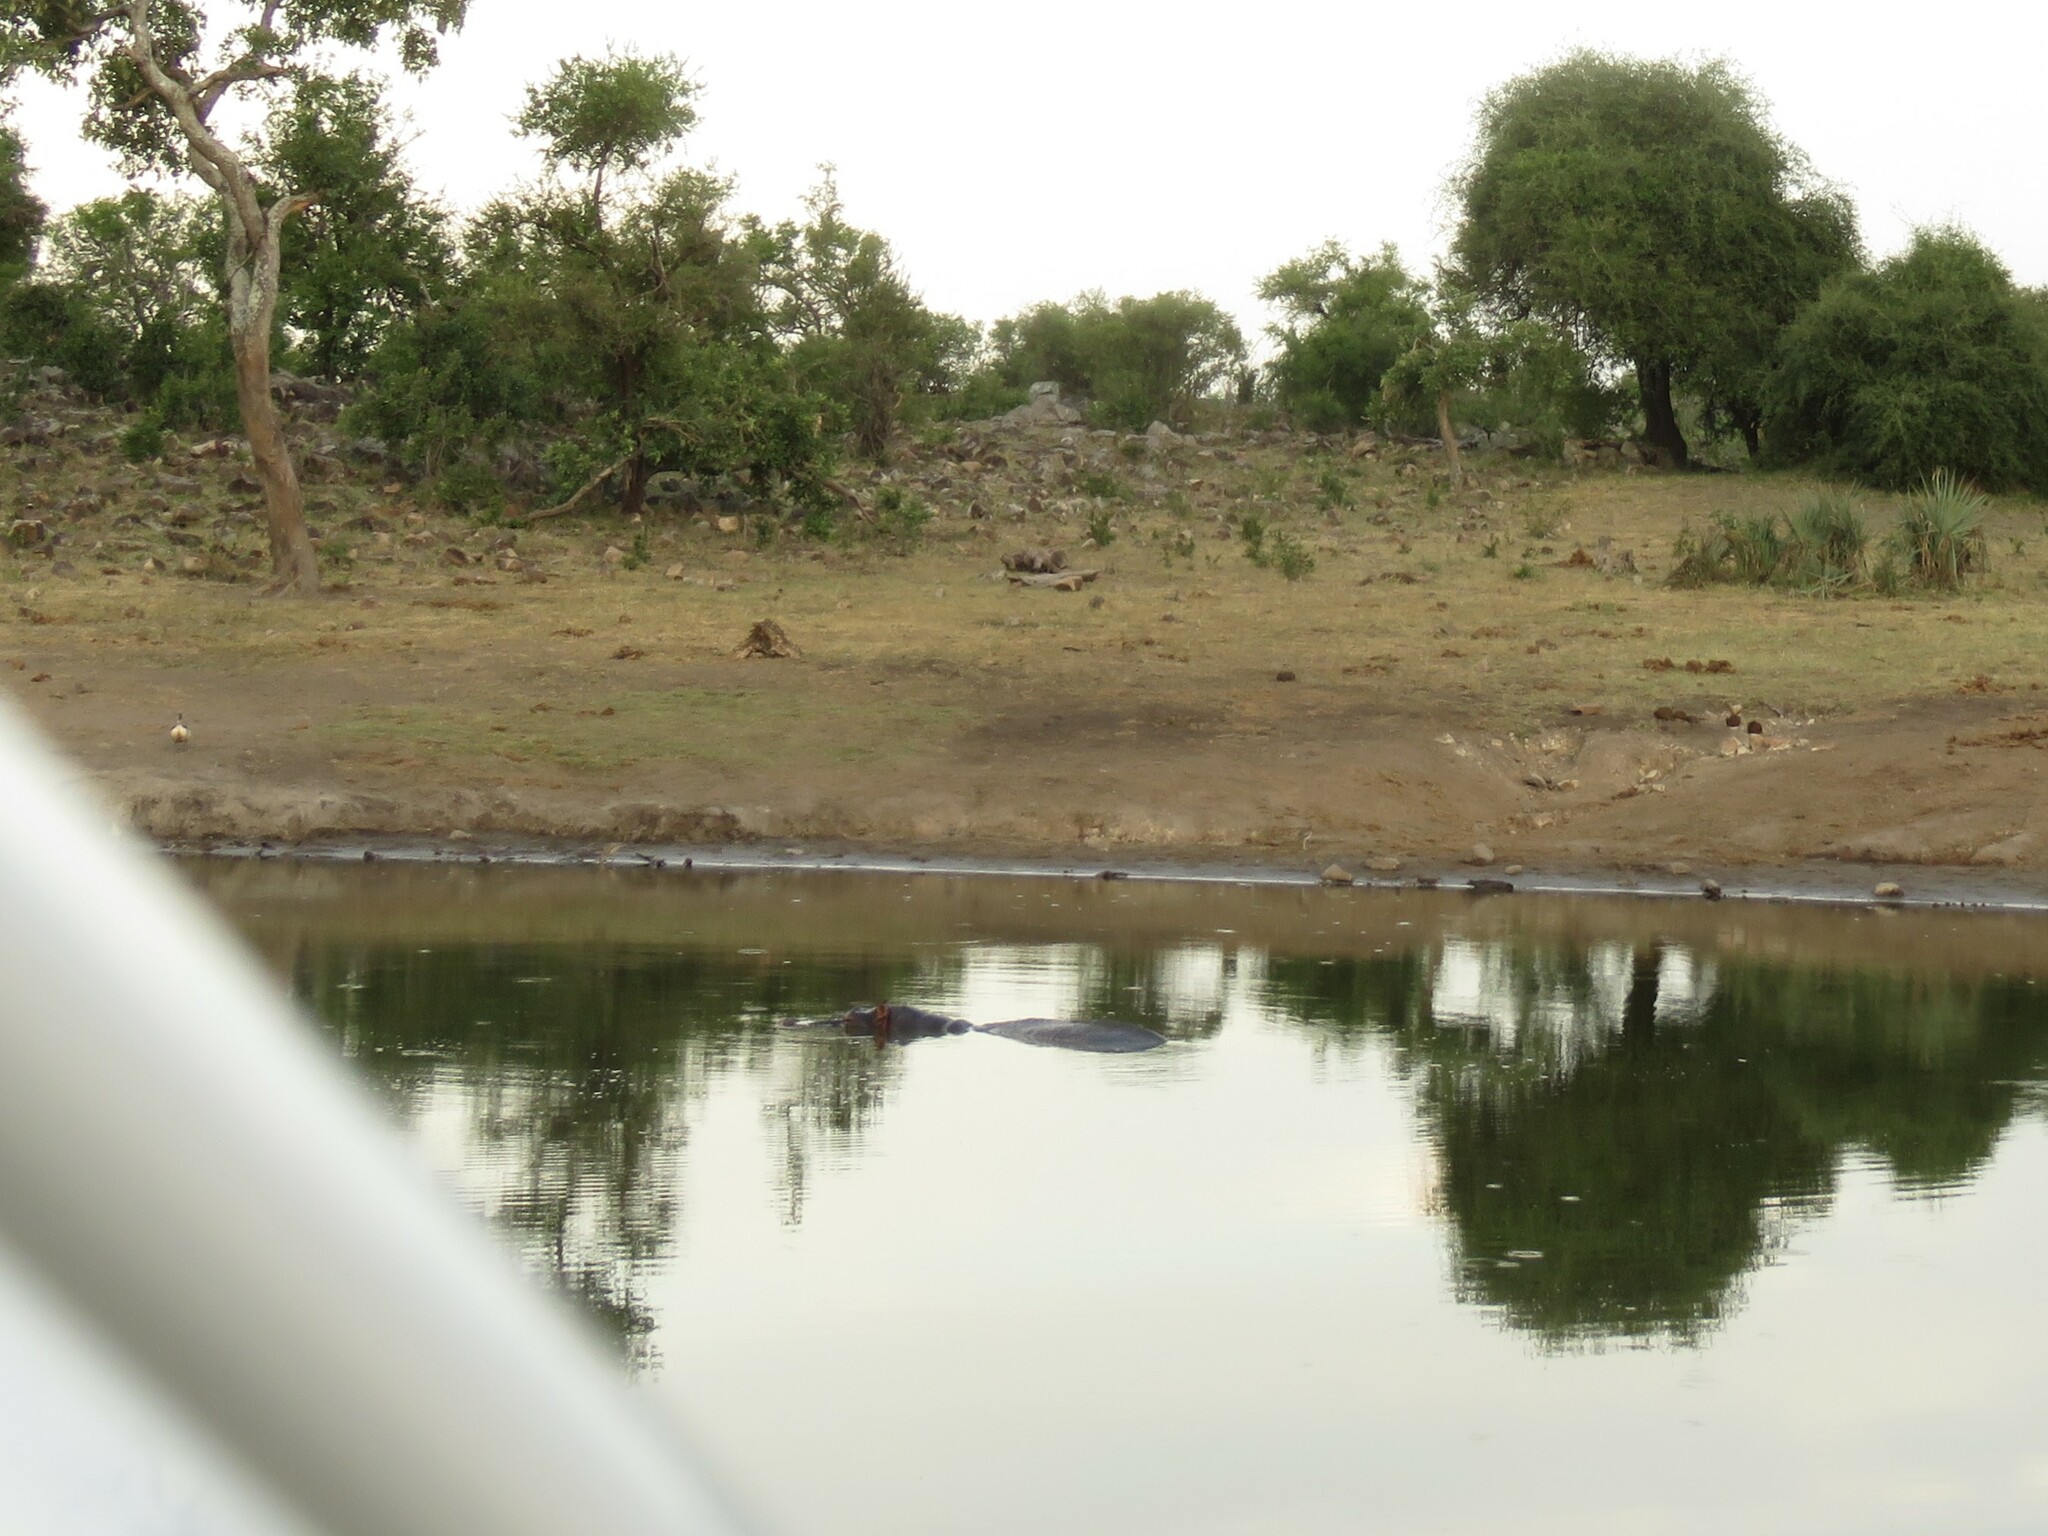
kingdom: Animalia
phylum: Chordata
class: Mammalia
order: Artiodactyla
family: Hippopotamidae
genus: Hippopotamus
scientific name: Hippopotamus amphibius
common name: Common hippopotamus
